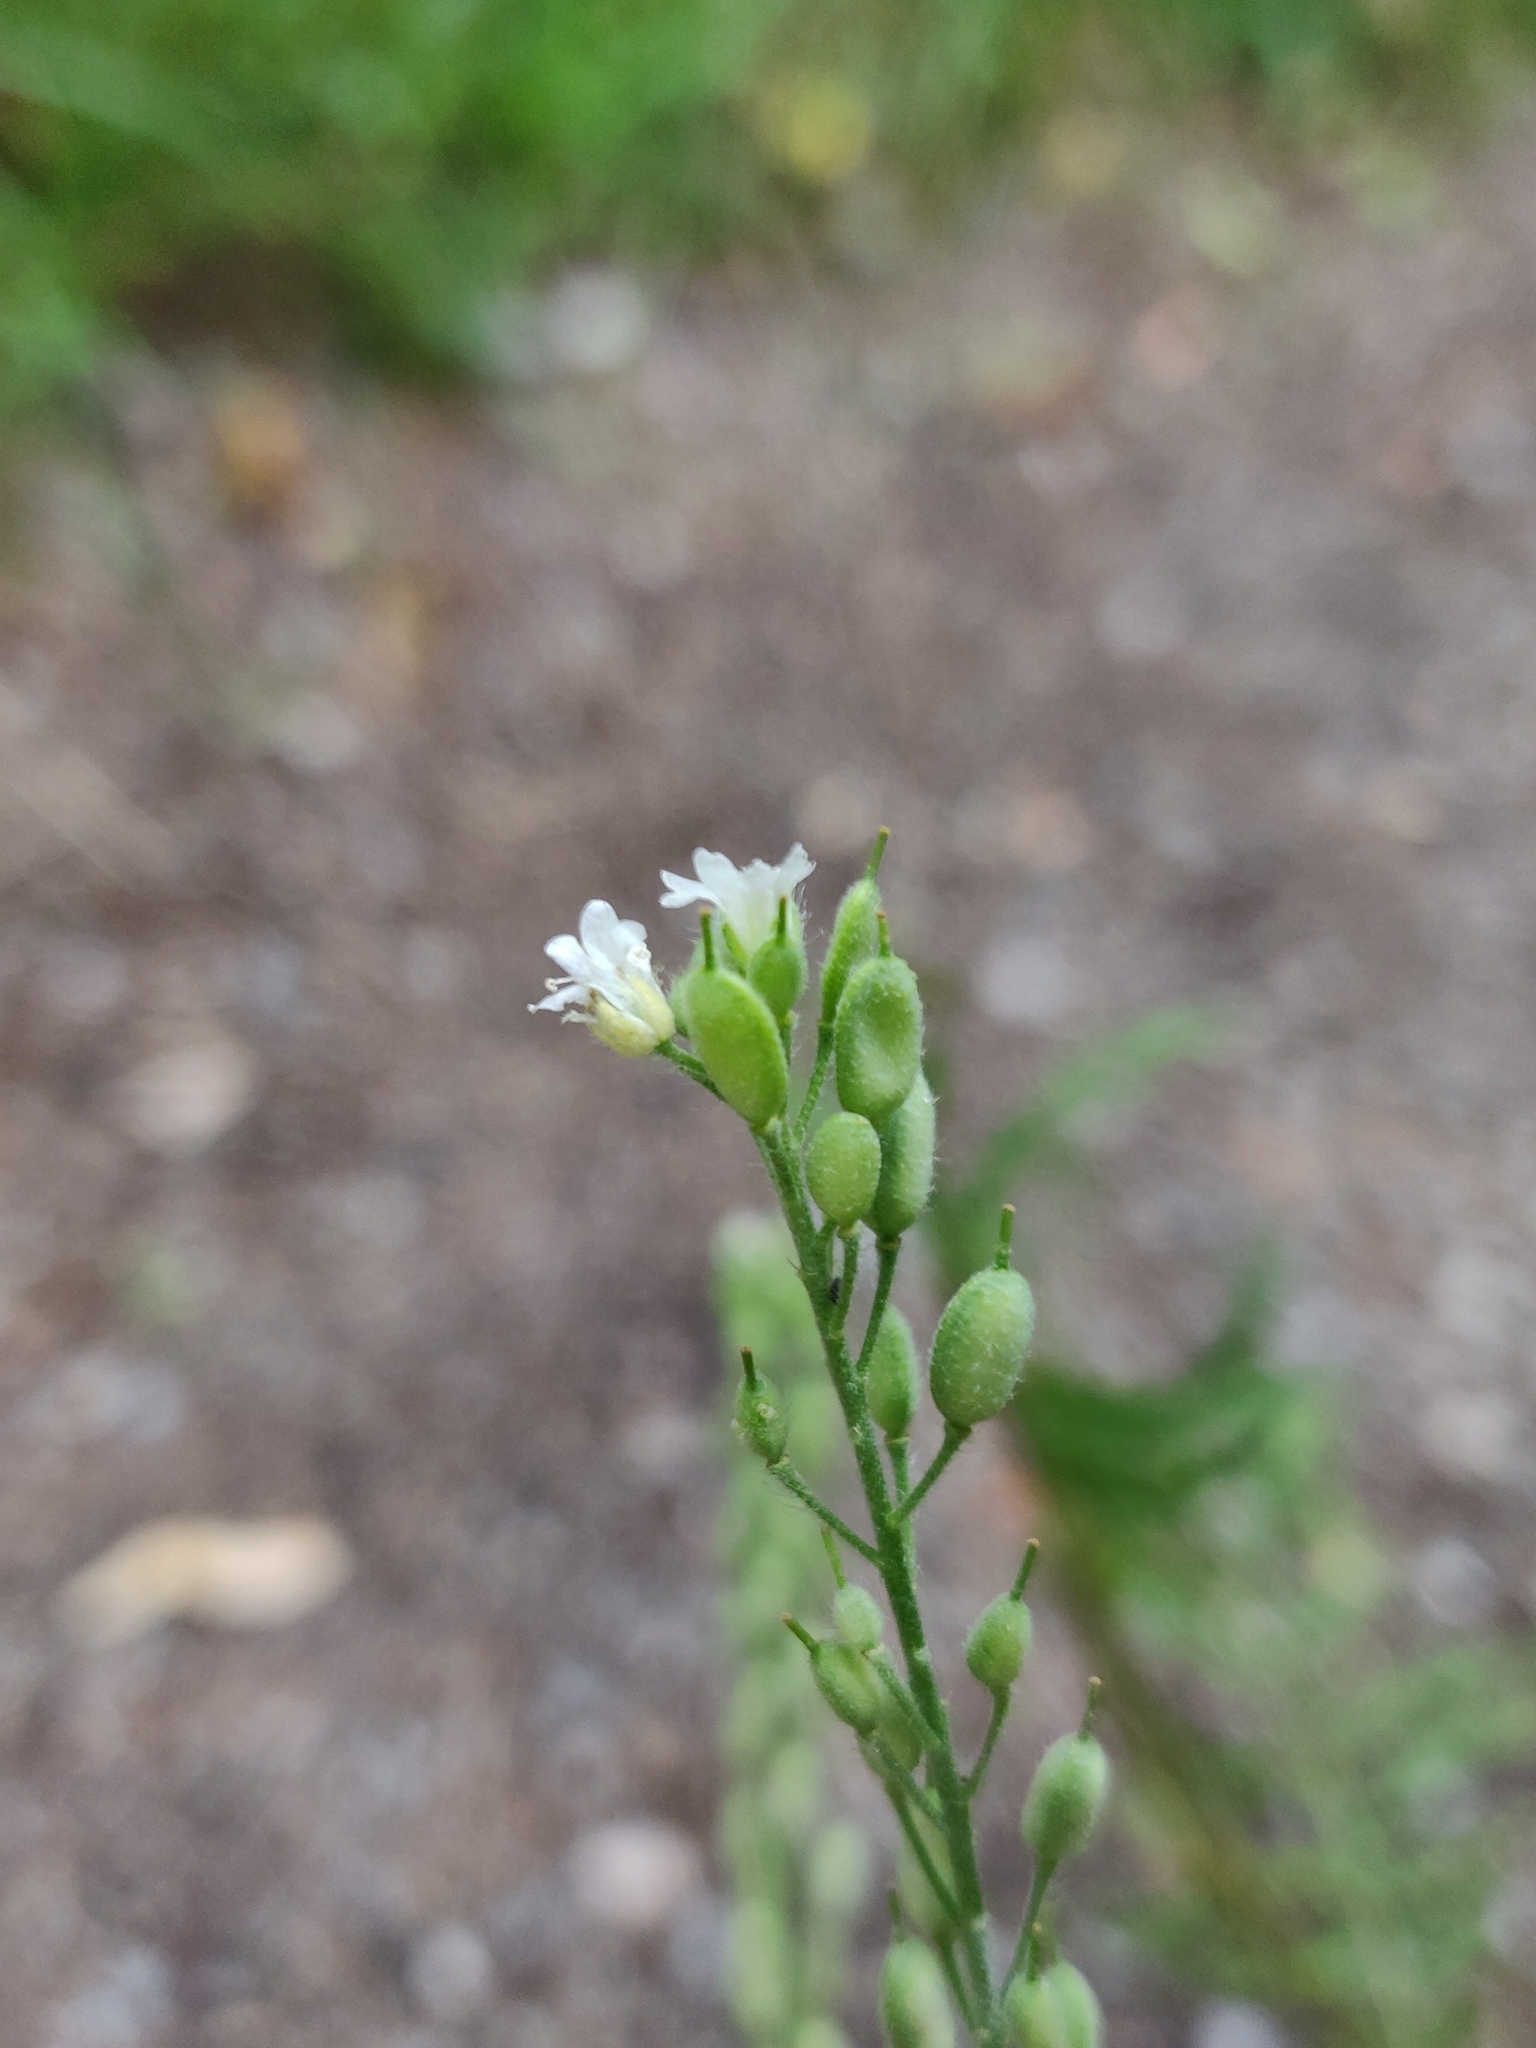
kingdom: Plantae
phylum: Tracheophyta
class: Magnoliopsida
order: Brassicales
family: Brassicaceae
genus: Berteroa
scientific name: Berteroa incana
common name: Hoary alison
